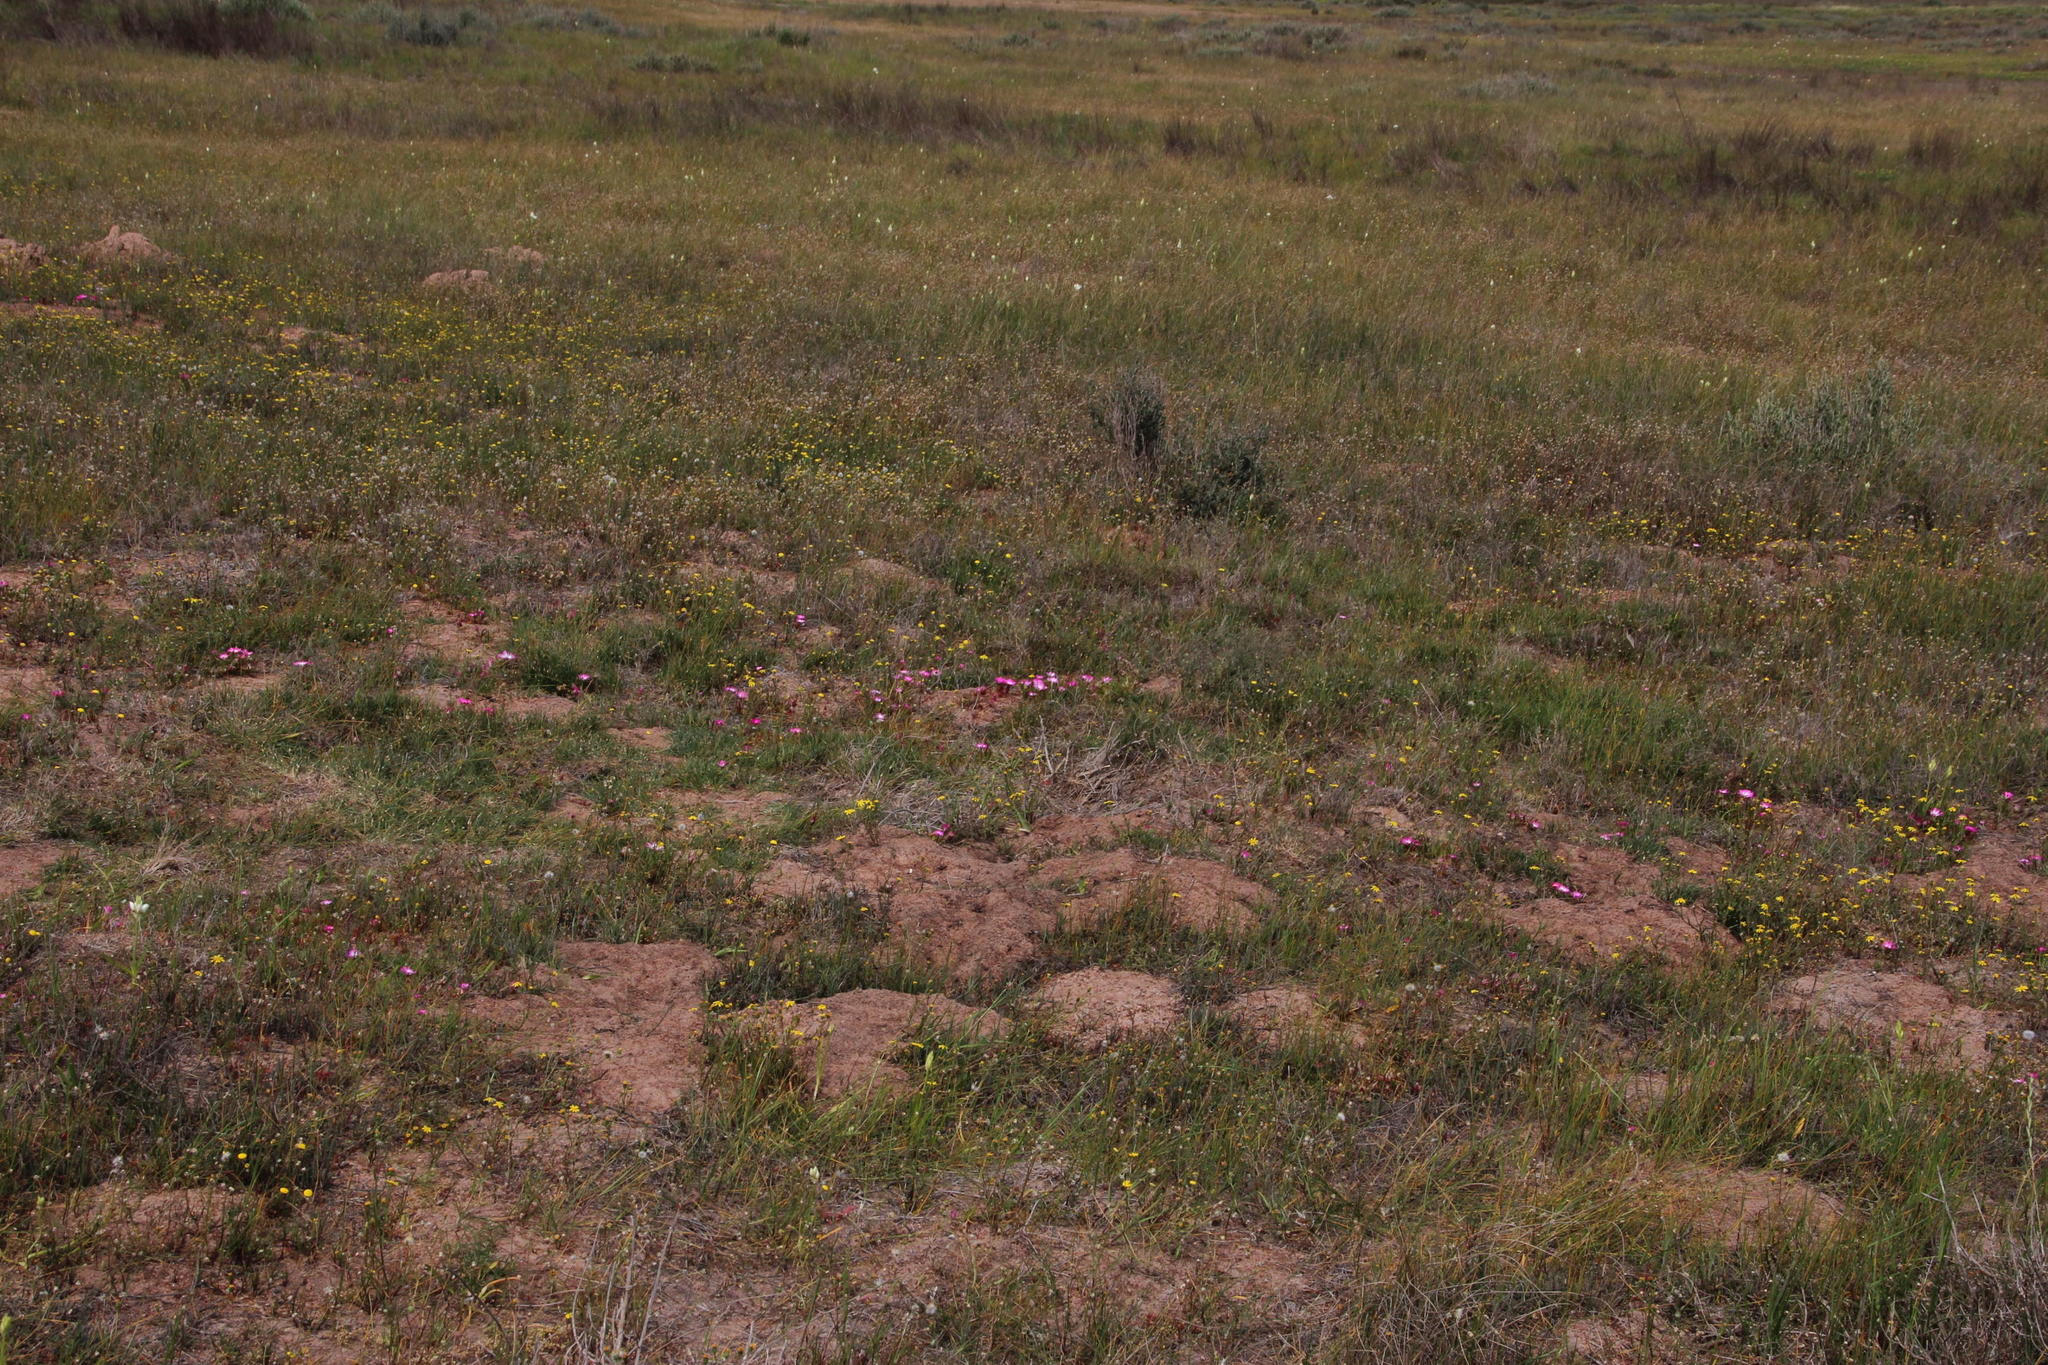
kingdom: Plantae
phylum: Tracheophyta
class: Magnoliopsida
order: Caryophyllales
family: Aizoaceae
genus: Cleretum
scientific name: Cleretum bellidiforme
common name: Livingstone daisy
